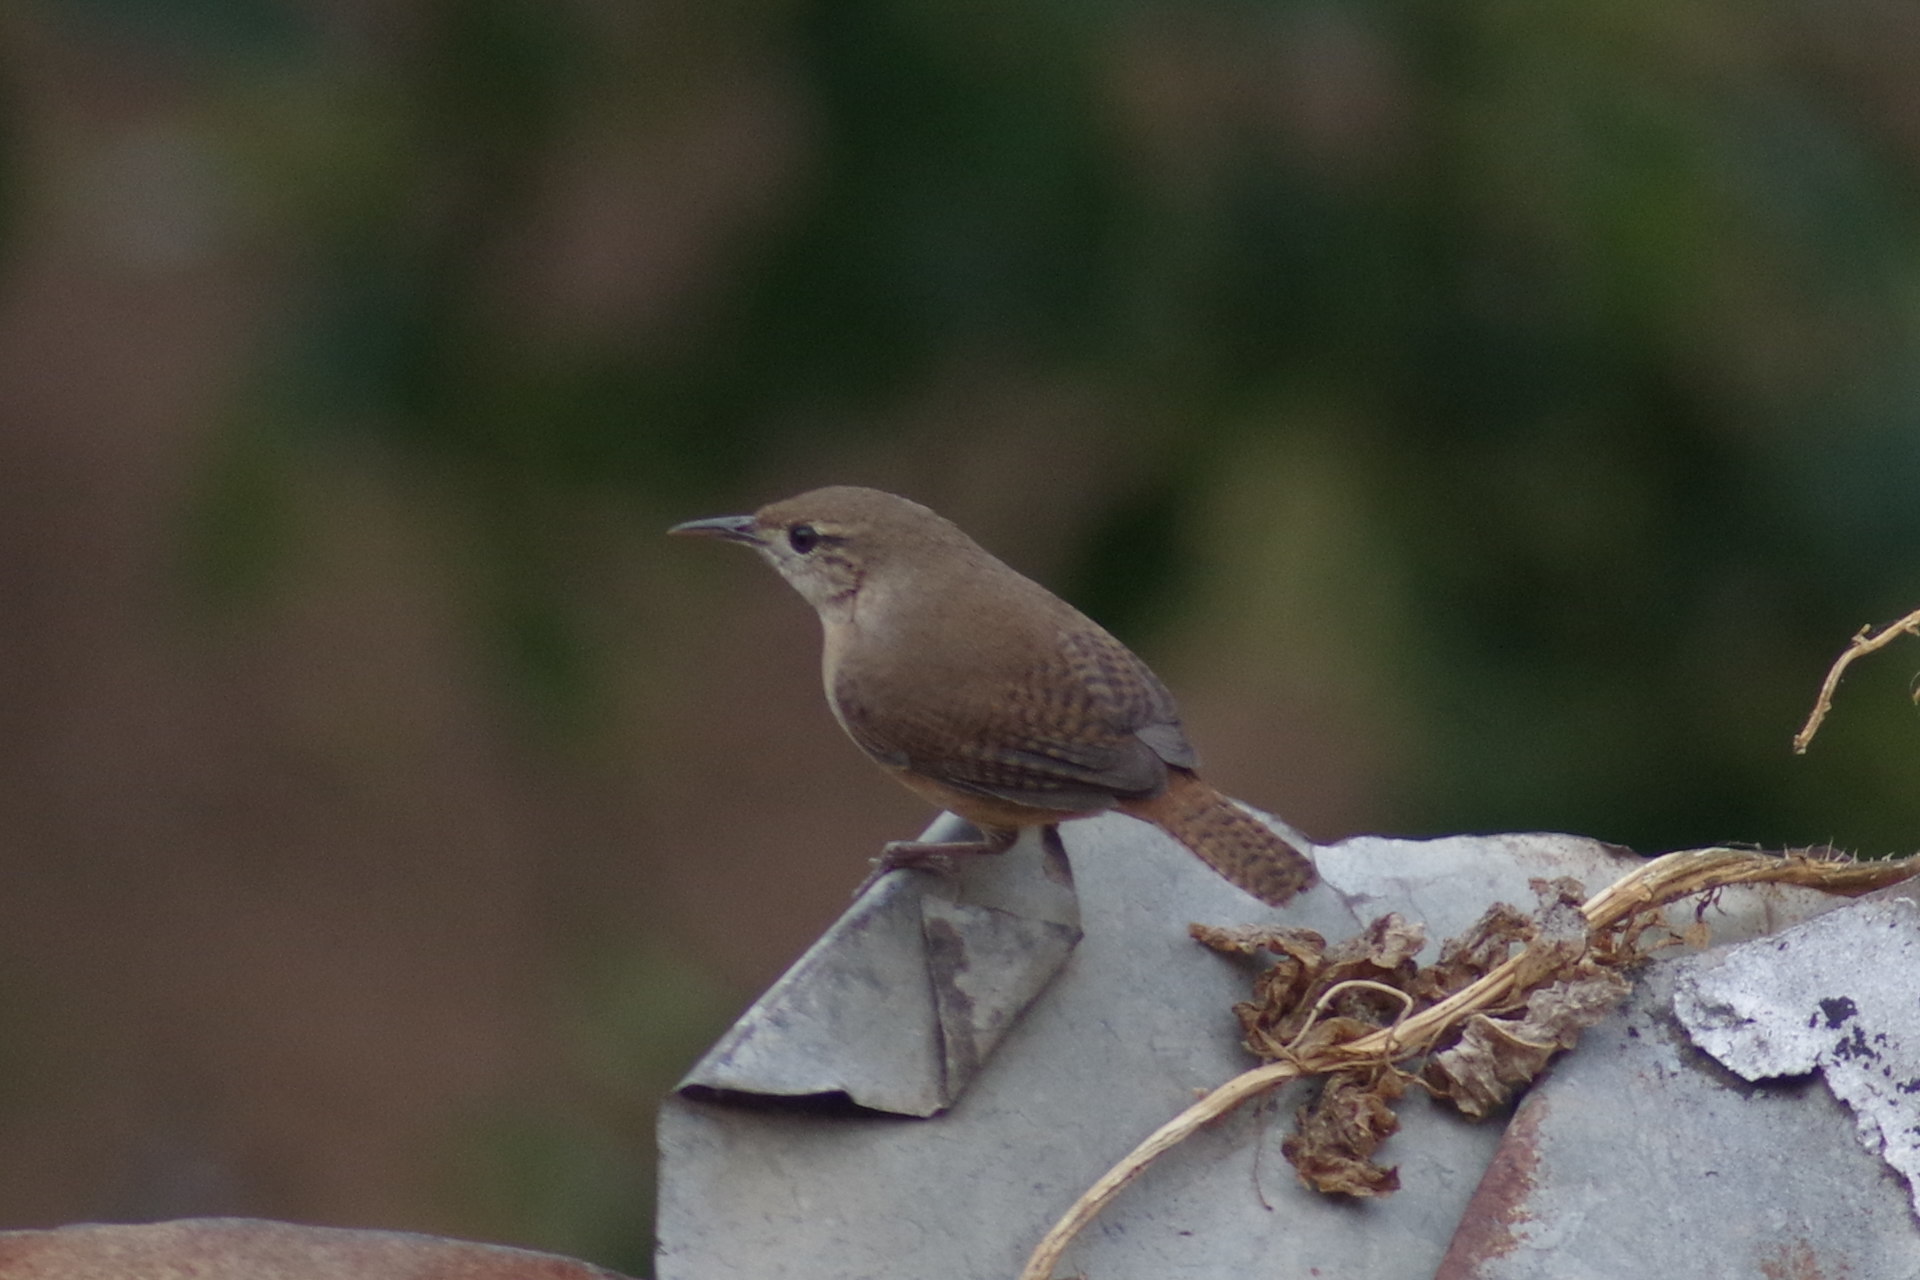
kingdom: Animalia
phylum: Chordata
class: Aves
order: Passeriformes
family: Troglodytidae
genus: Troglodytes
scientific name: Troglodytes aedon
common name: House wren
